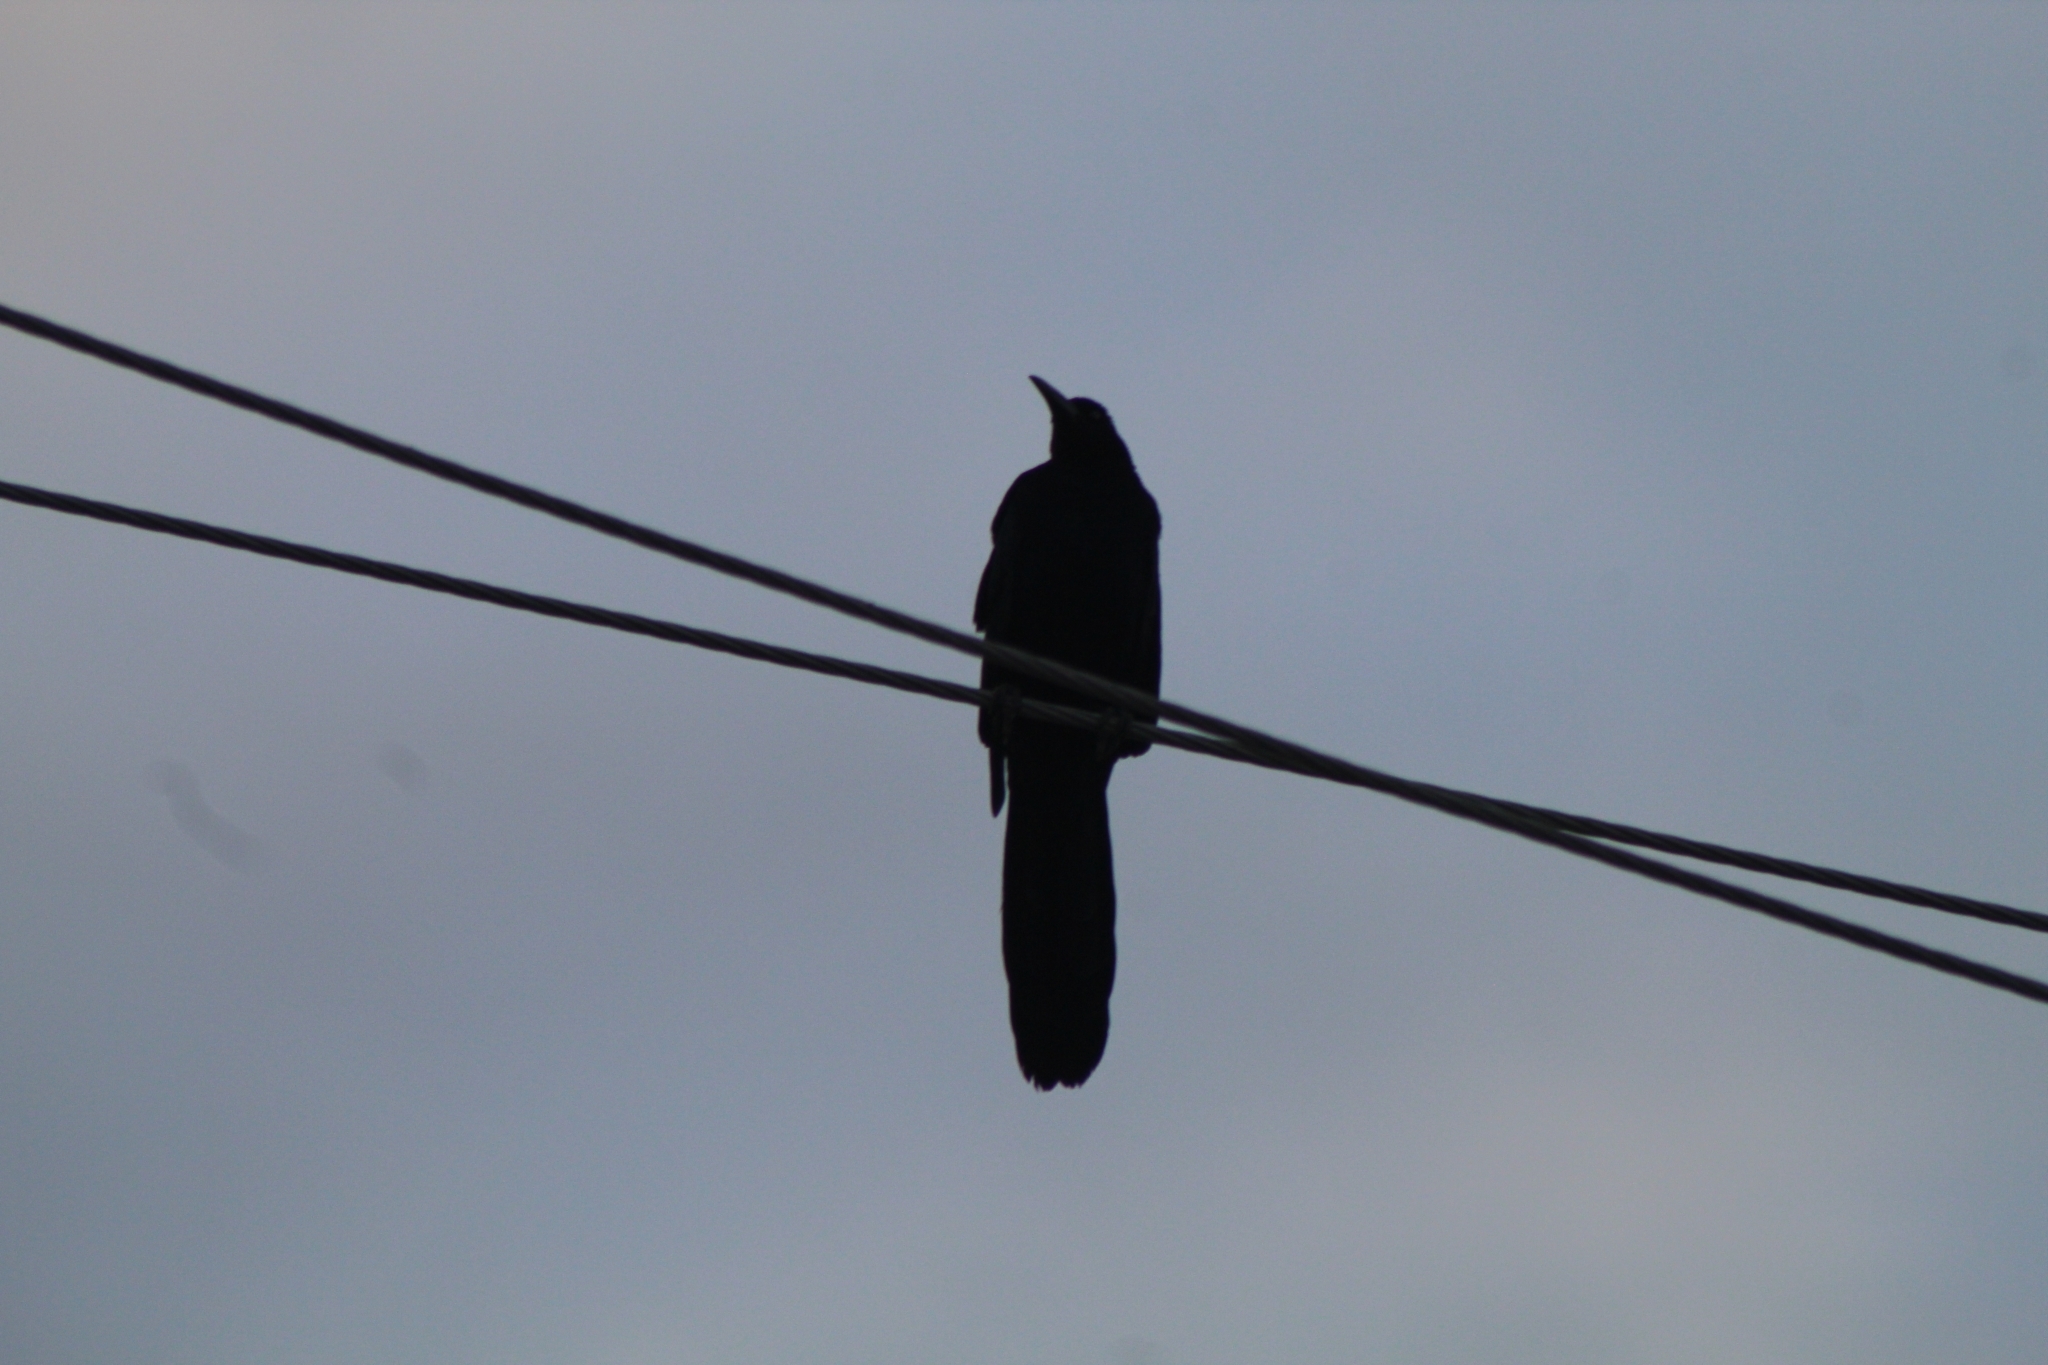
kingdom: Animalia
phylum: Chordata
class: Aves
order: Passeriformes
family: Icteridae
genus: Quiscalus
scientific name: Quiscalus mexicanus
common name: Great-tailed grackle
